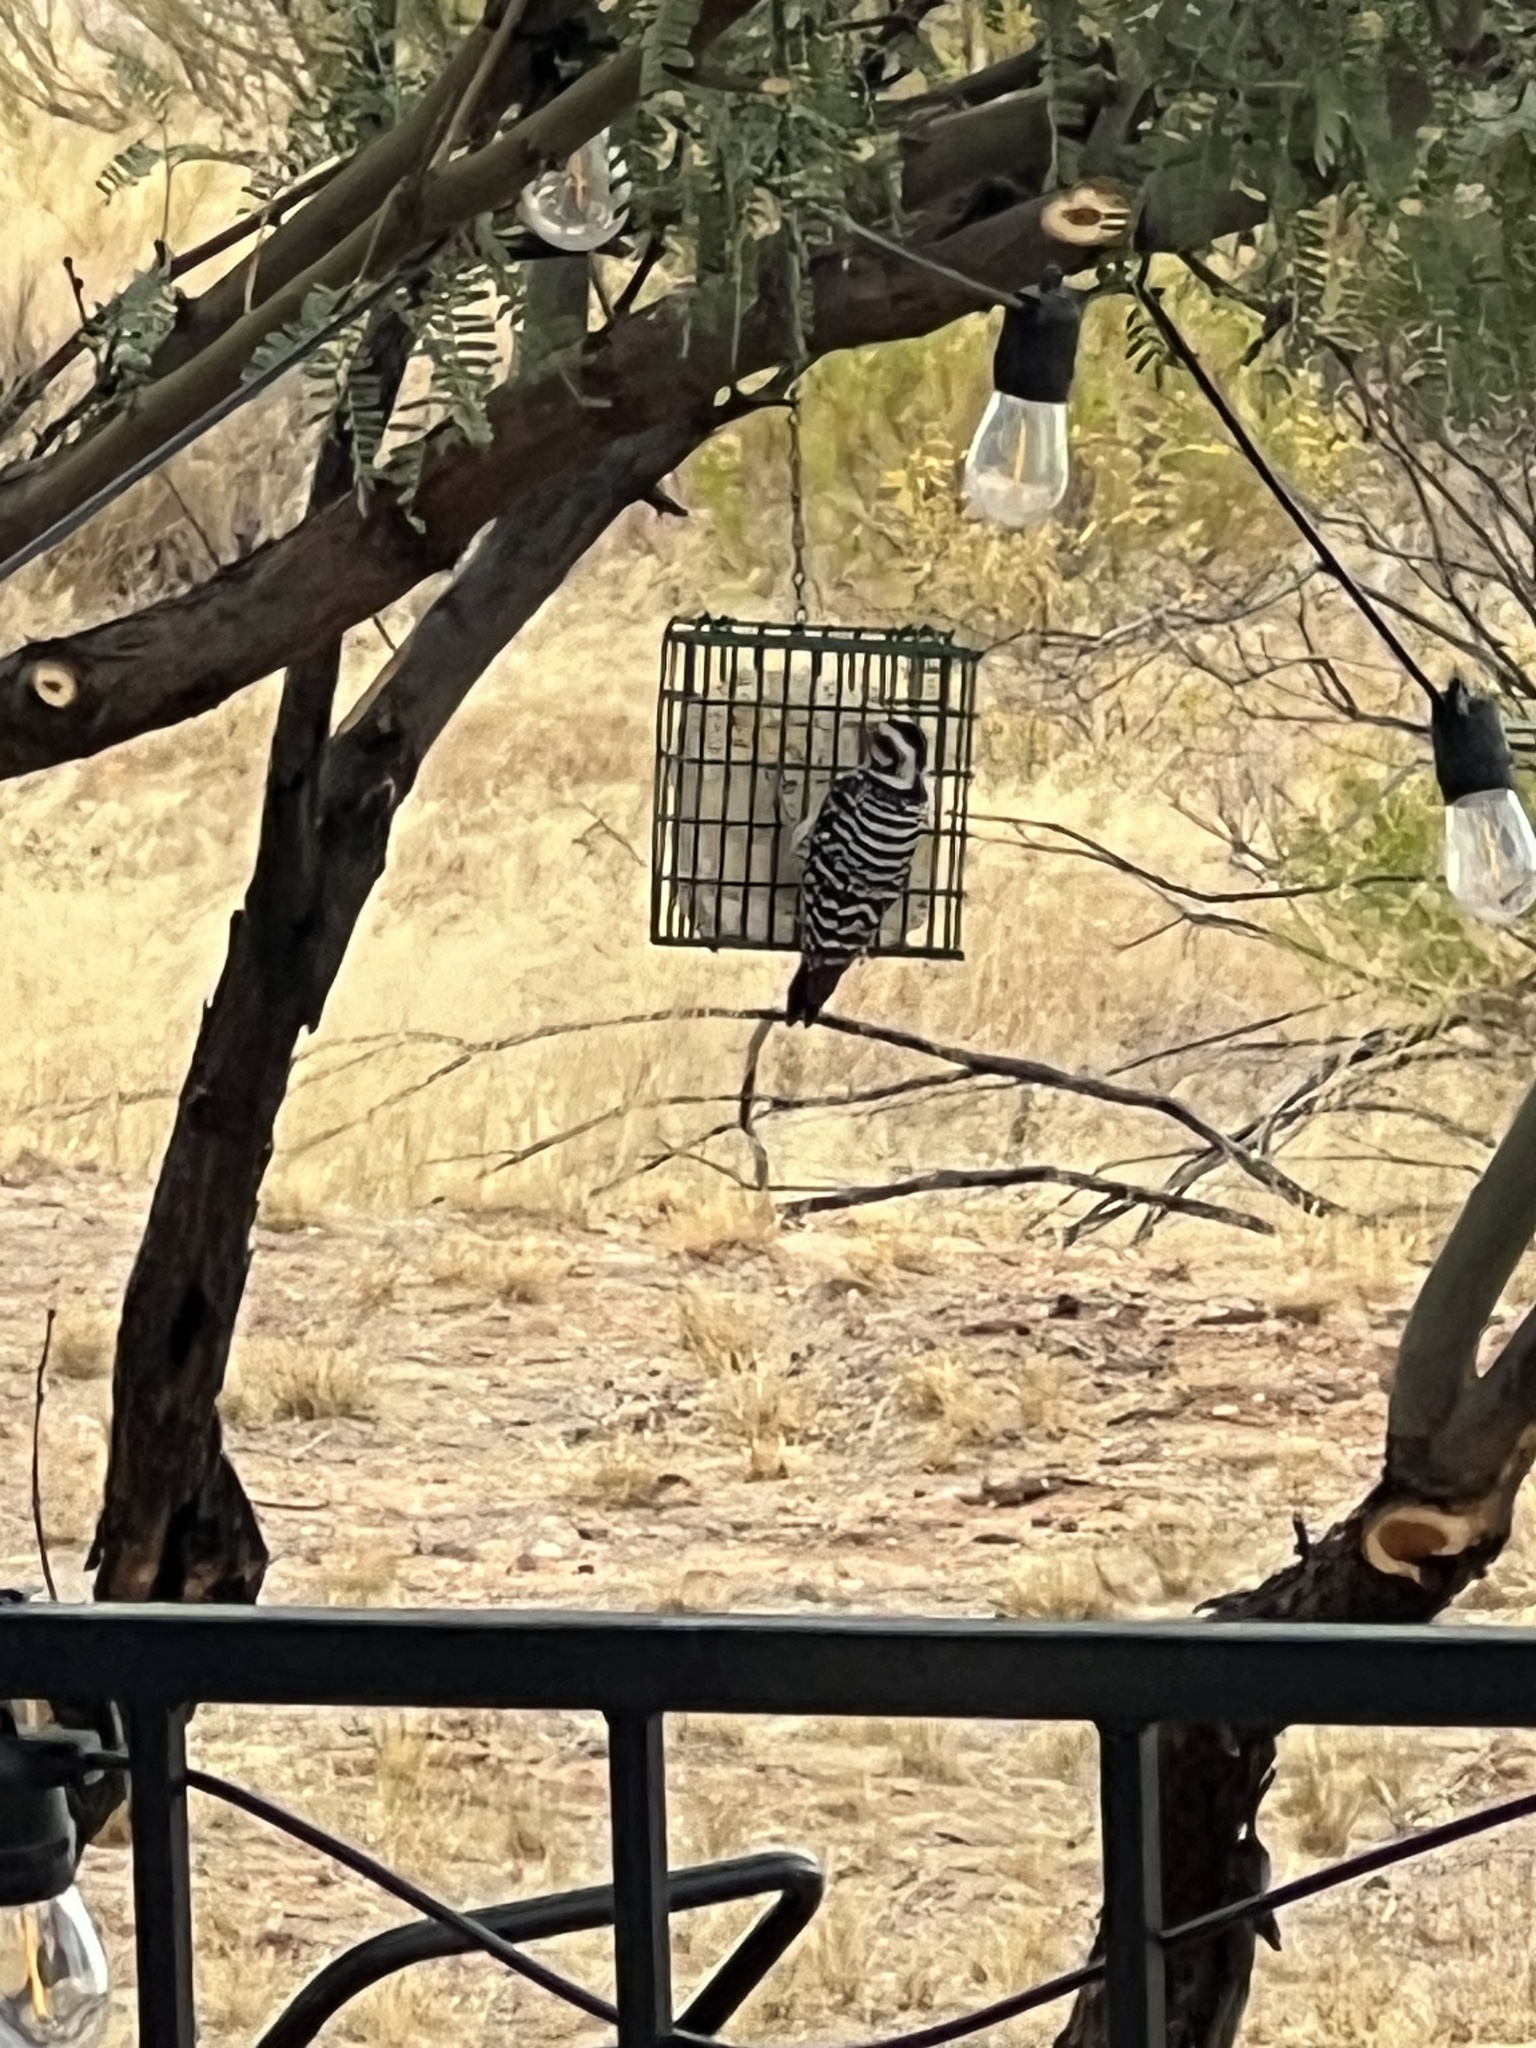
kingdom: Animalia
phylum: Chordata
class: Aves
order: Piciformes
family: Picidae
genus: Dryobates
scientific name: Dryobates scalaris
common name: Ladder-backed woodpecker
